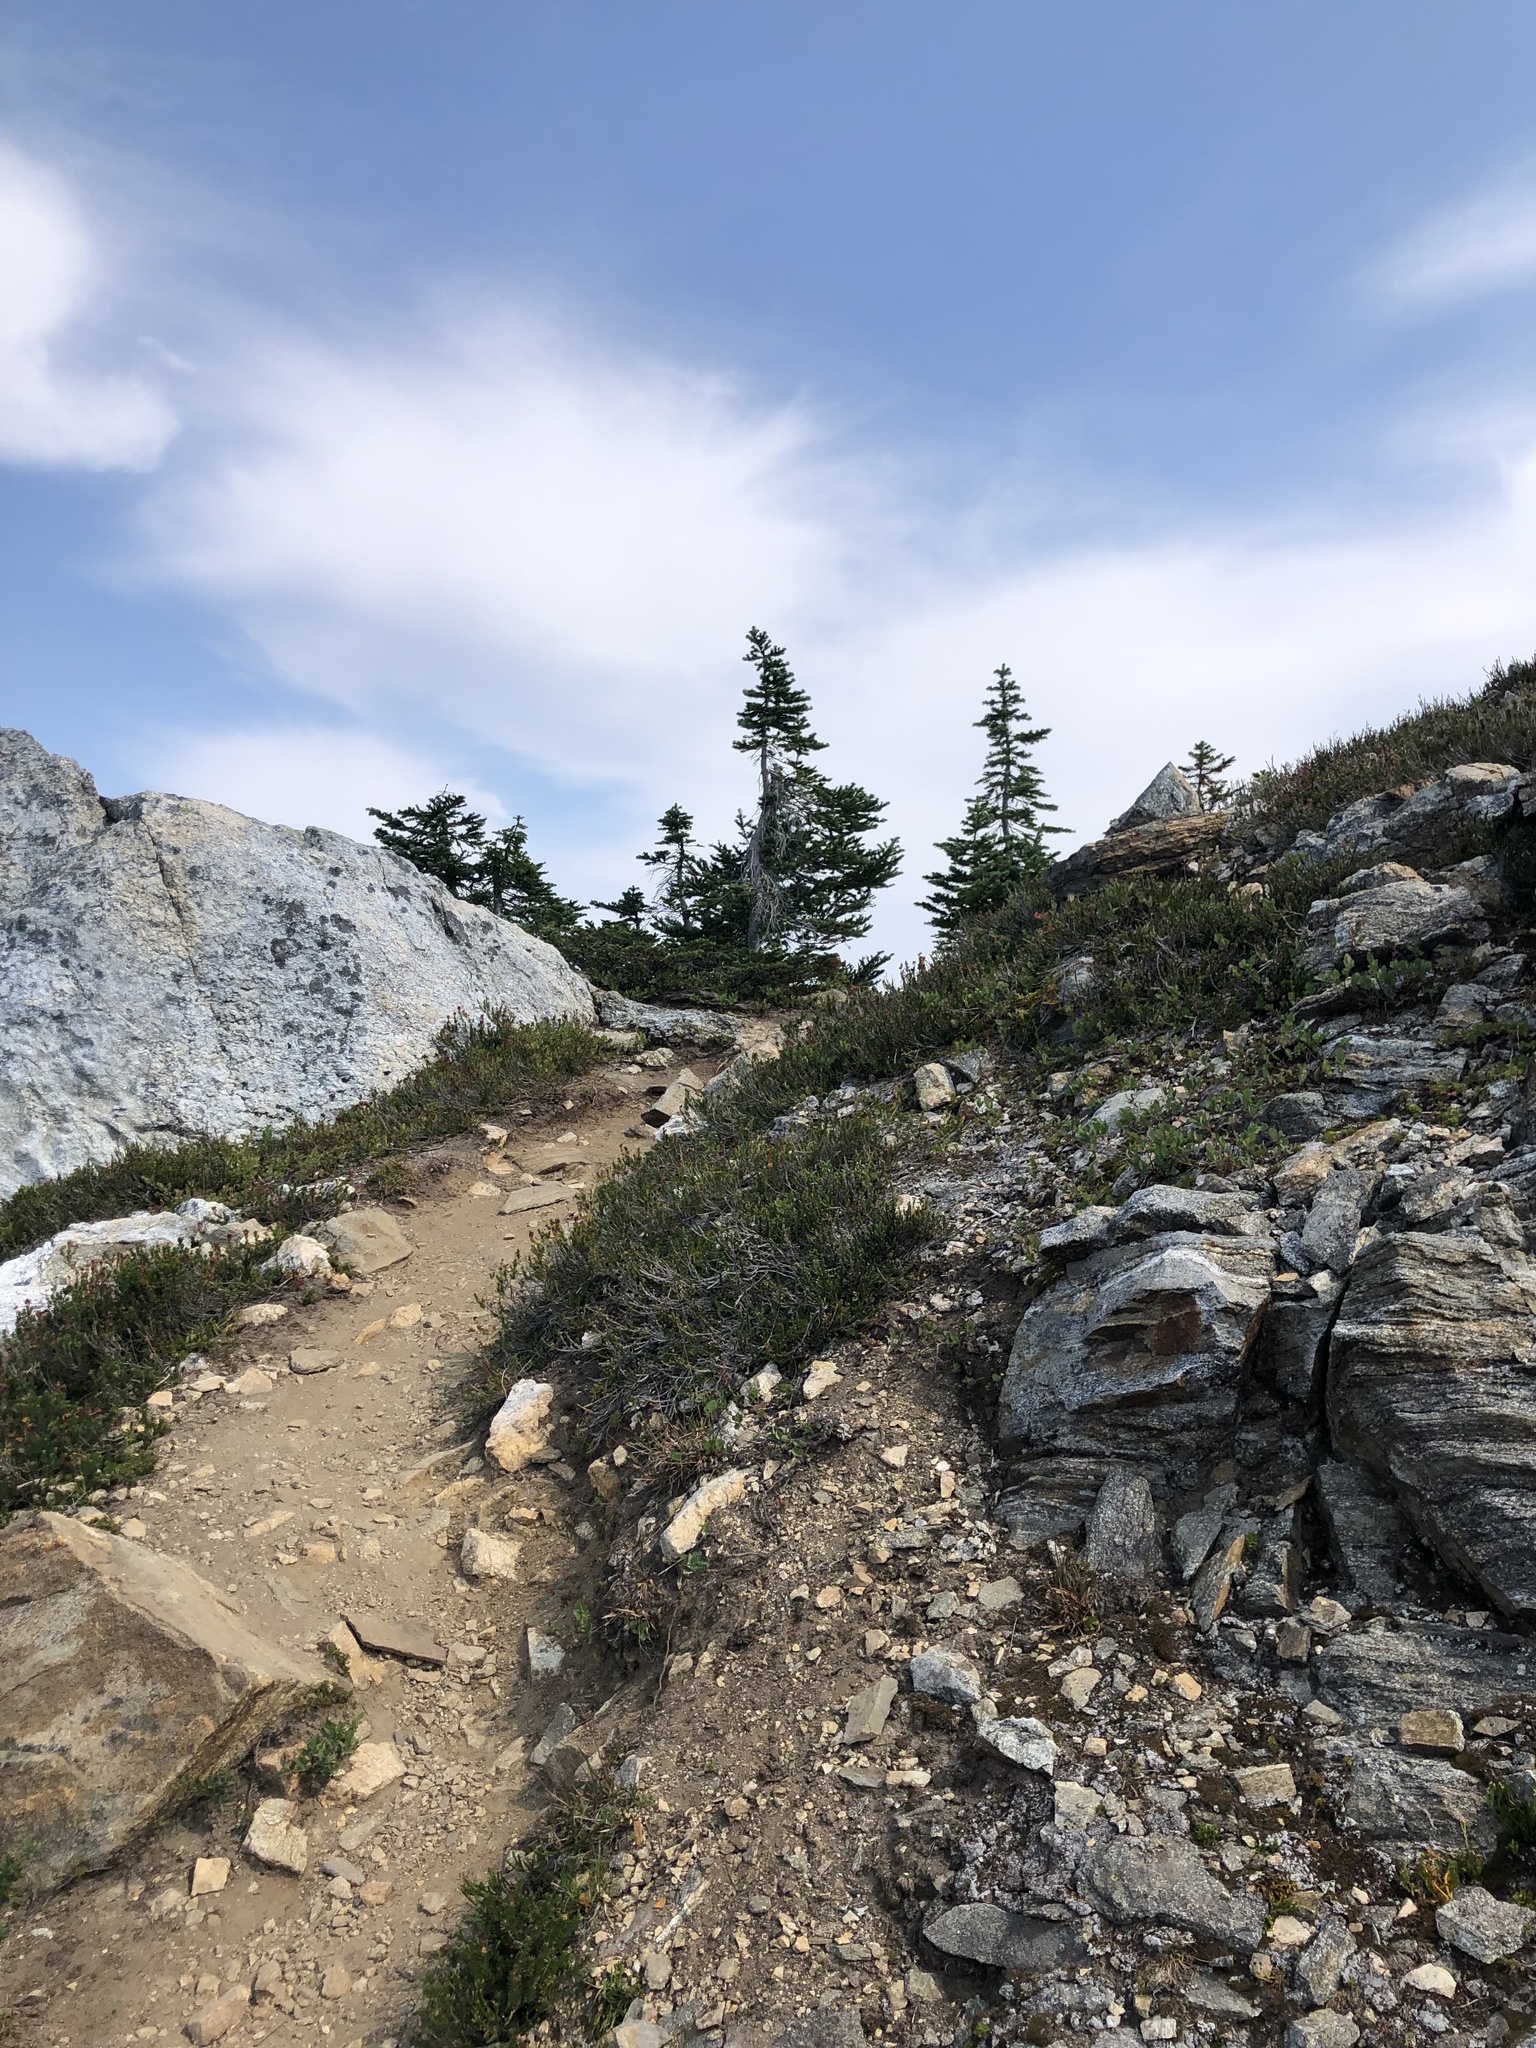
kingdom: Plantae
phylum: Tracheophyta
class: Pinopsida
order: Pinales
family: Pinaceae
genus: Abies
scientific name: Abies lasiocarpa
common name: Subalpine fir
